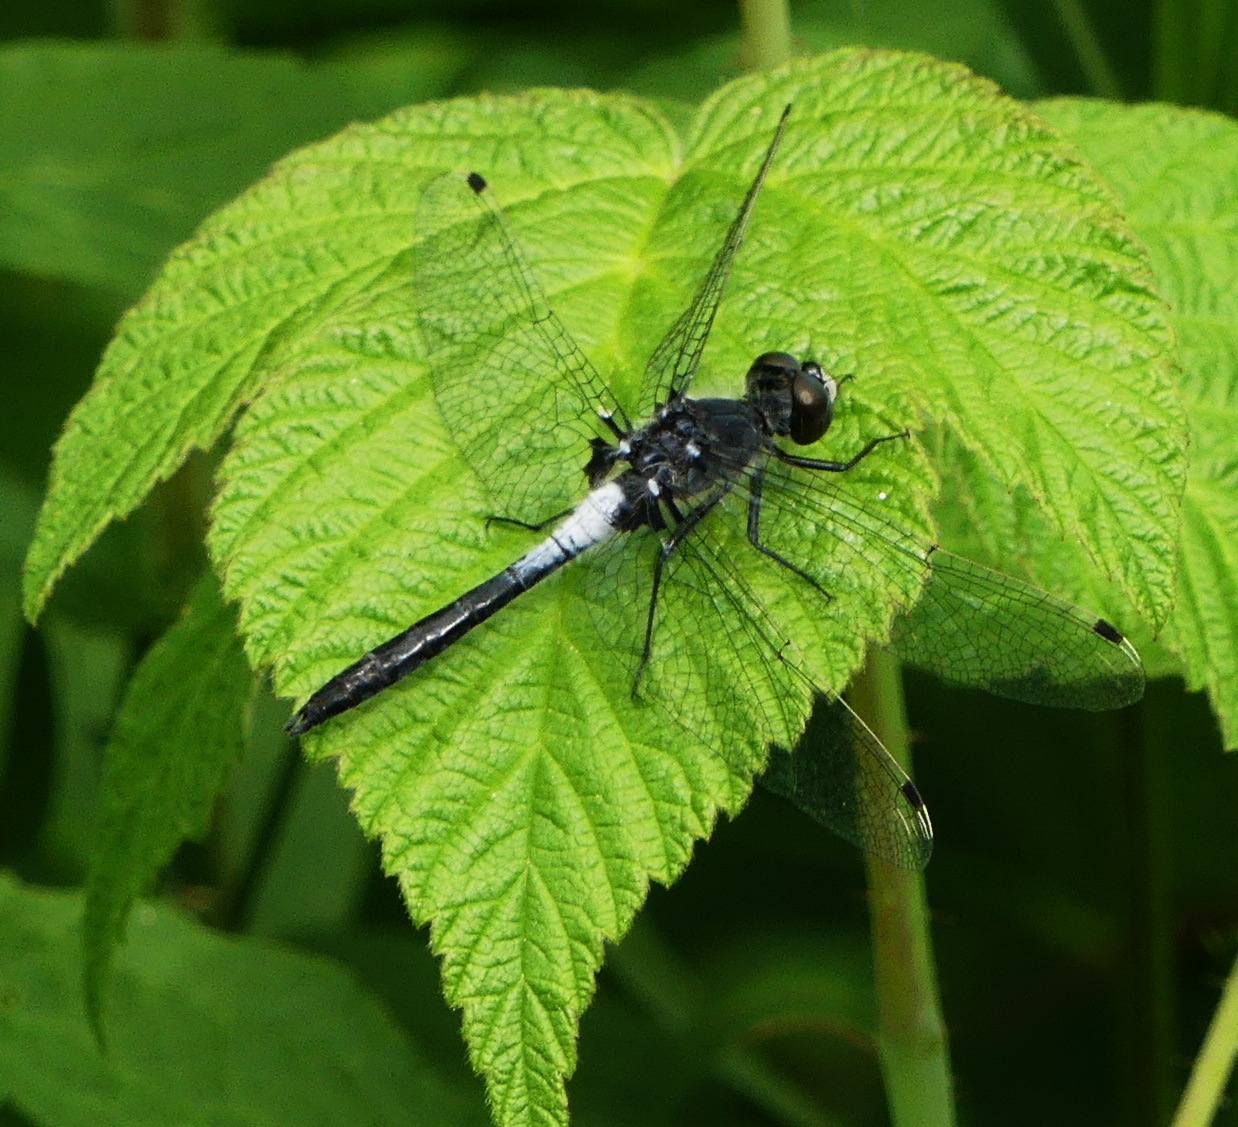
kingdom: Animalia
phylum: Arthropoda
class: Insecta
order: Odonata
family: Libellulidae
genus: Leucorrhinia
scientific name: Leucorrhinia frigida
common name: Frosted whiteface
